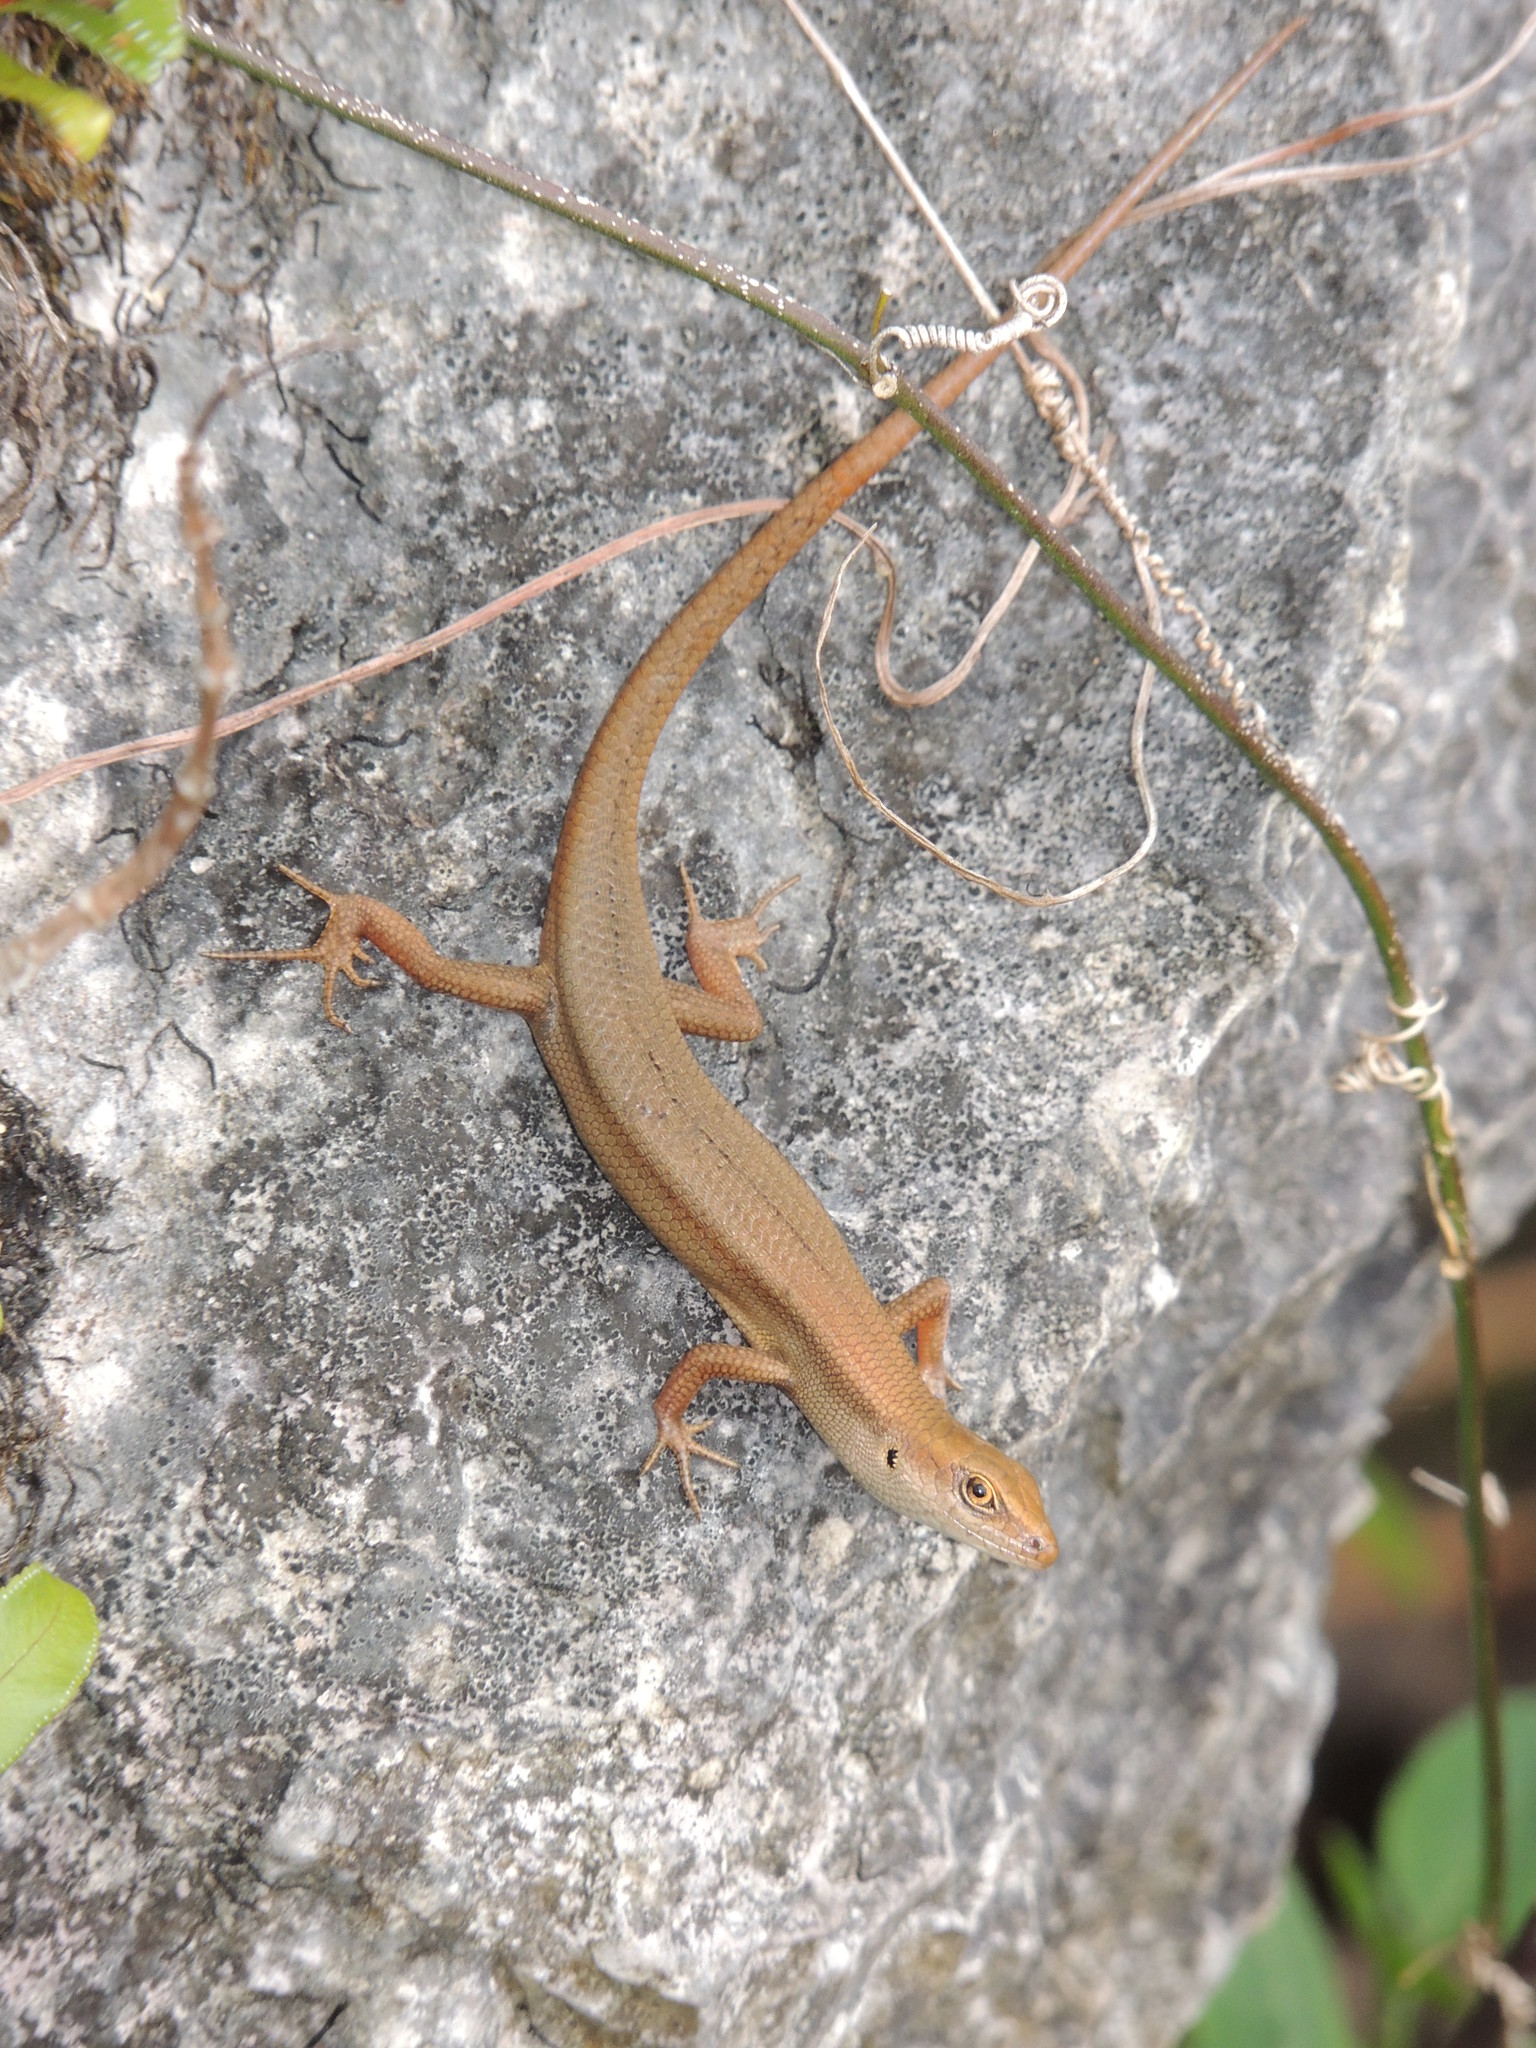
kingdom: Animalia
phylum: Chordata
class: Squamata
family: Scincidae
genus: Carlia
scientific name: Carlia ailanpalai
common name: Curious skink
